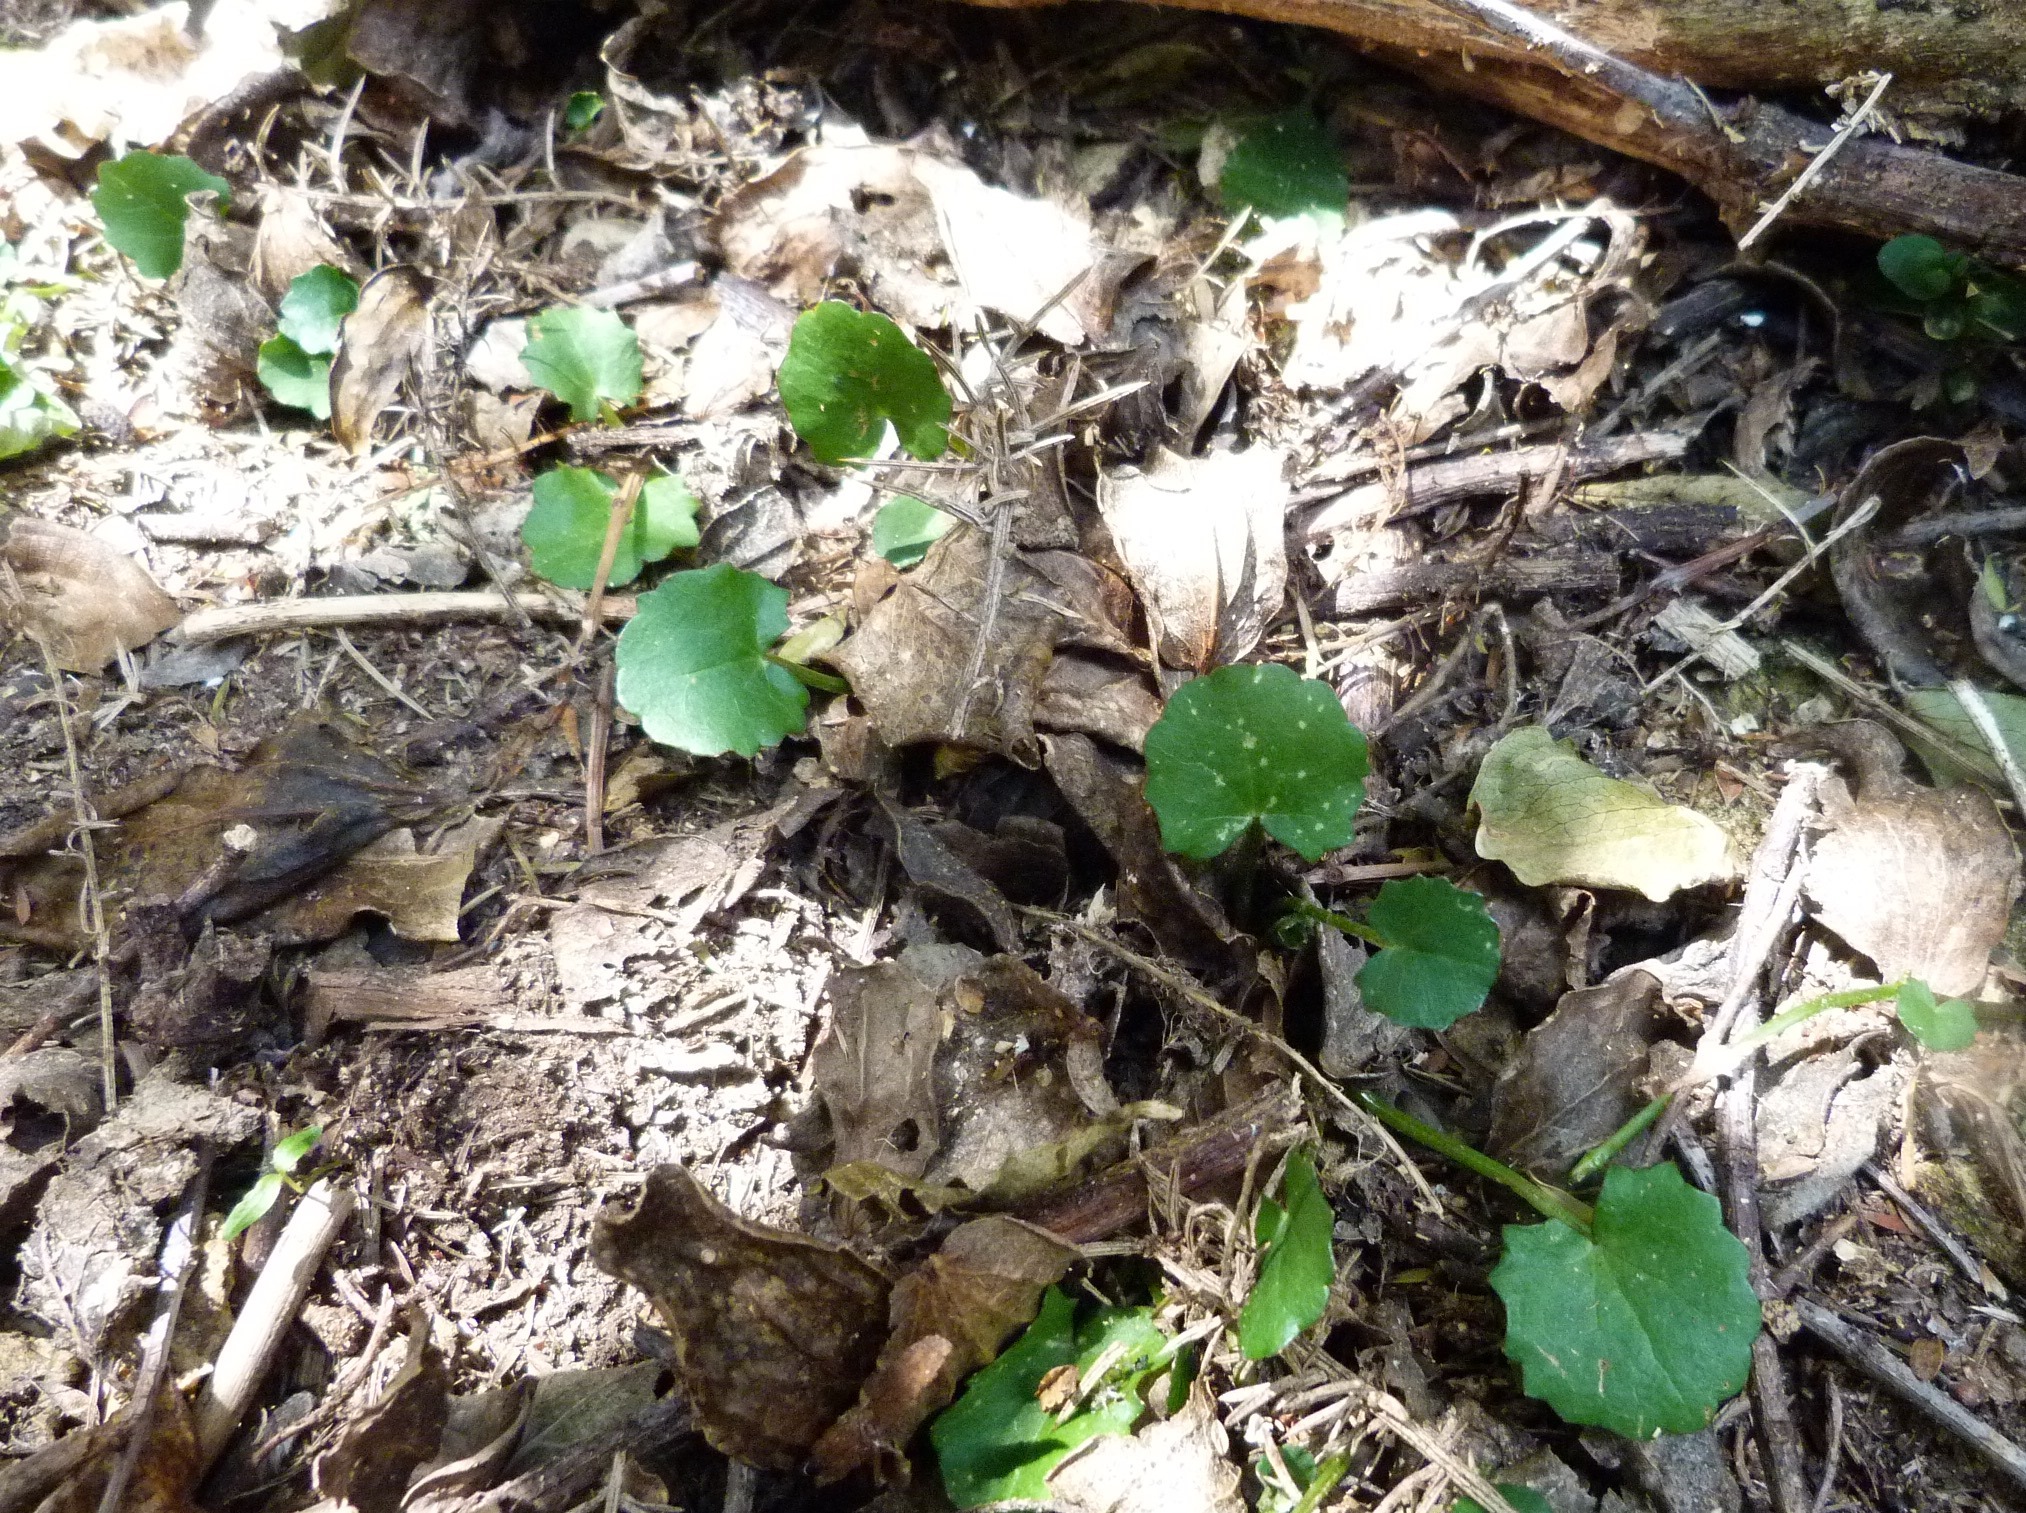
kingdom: Plantae
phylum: Tracheophyta
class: Magnoliopsida
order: Apiales
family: Apiaceae
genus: Centella
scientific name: Centella uniflora
